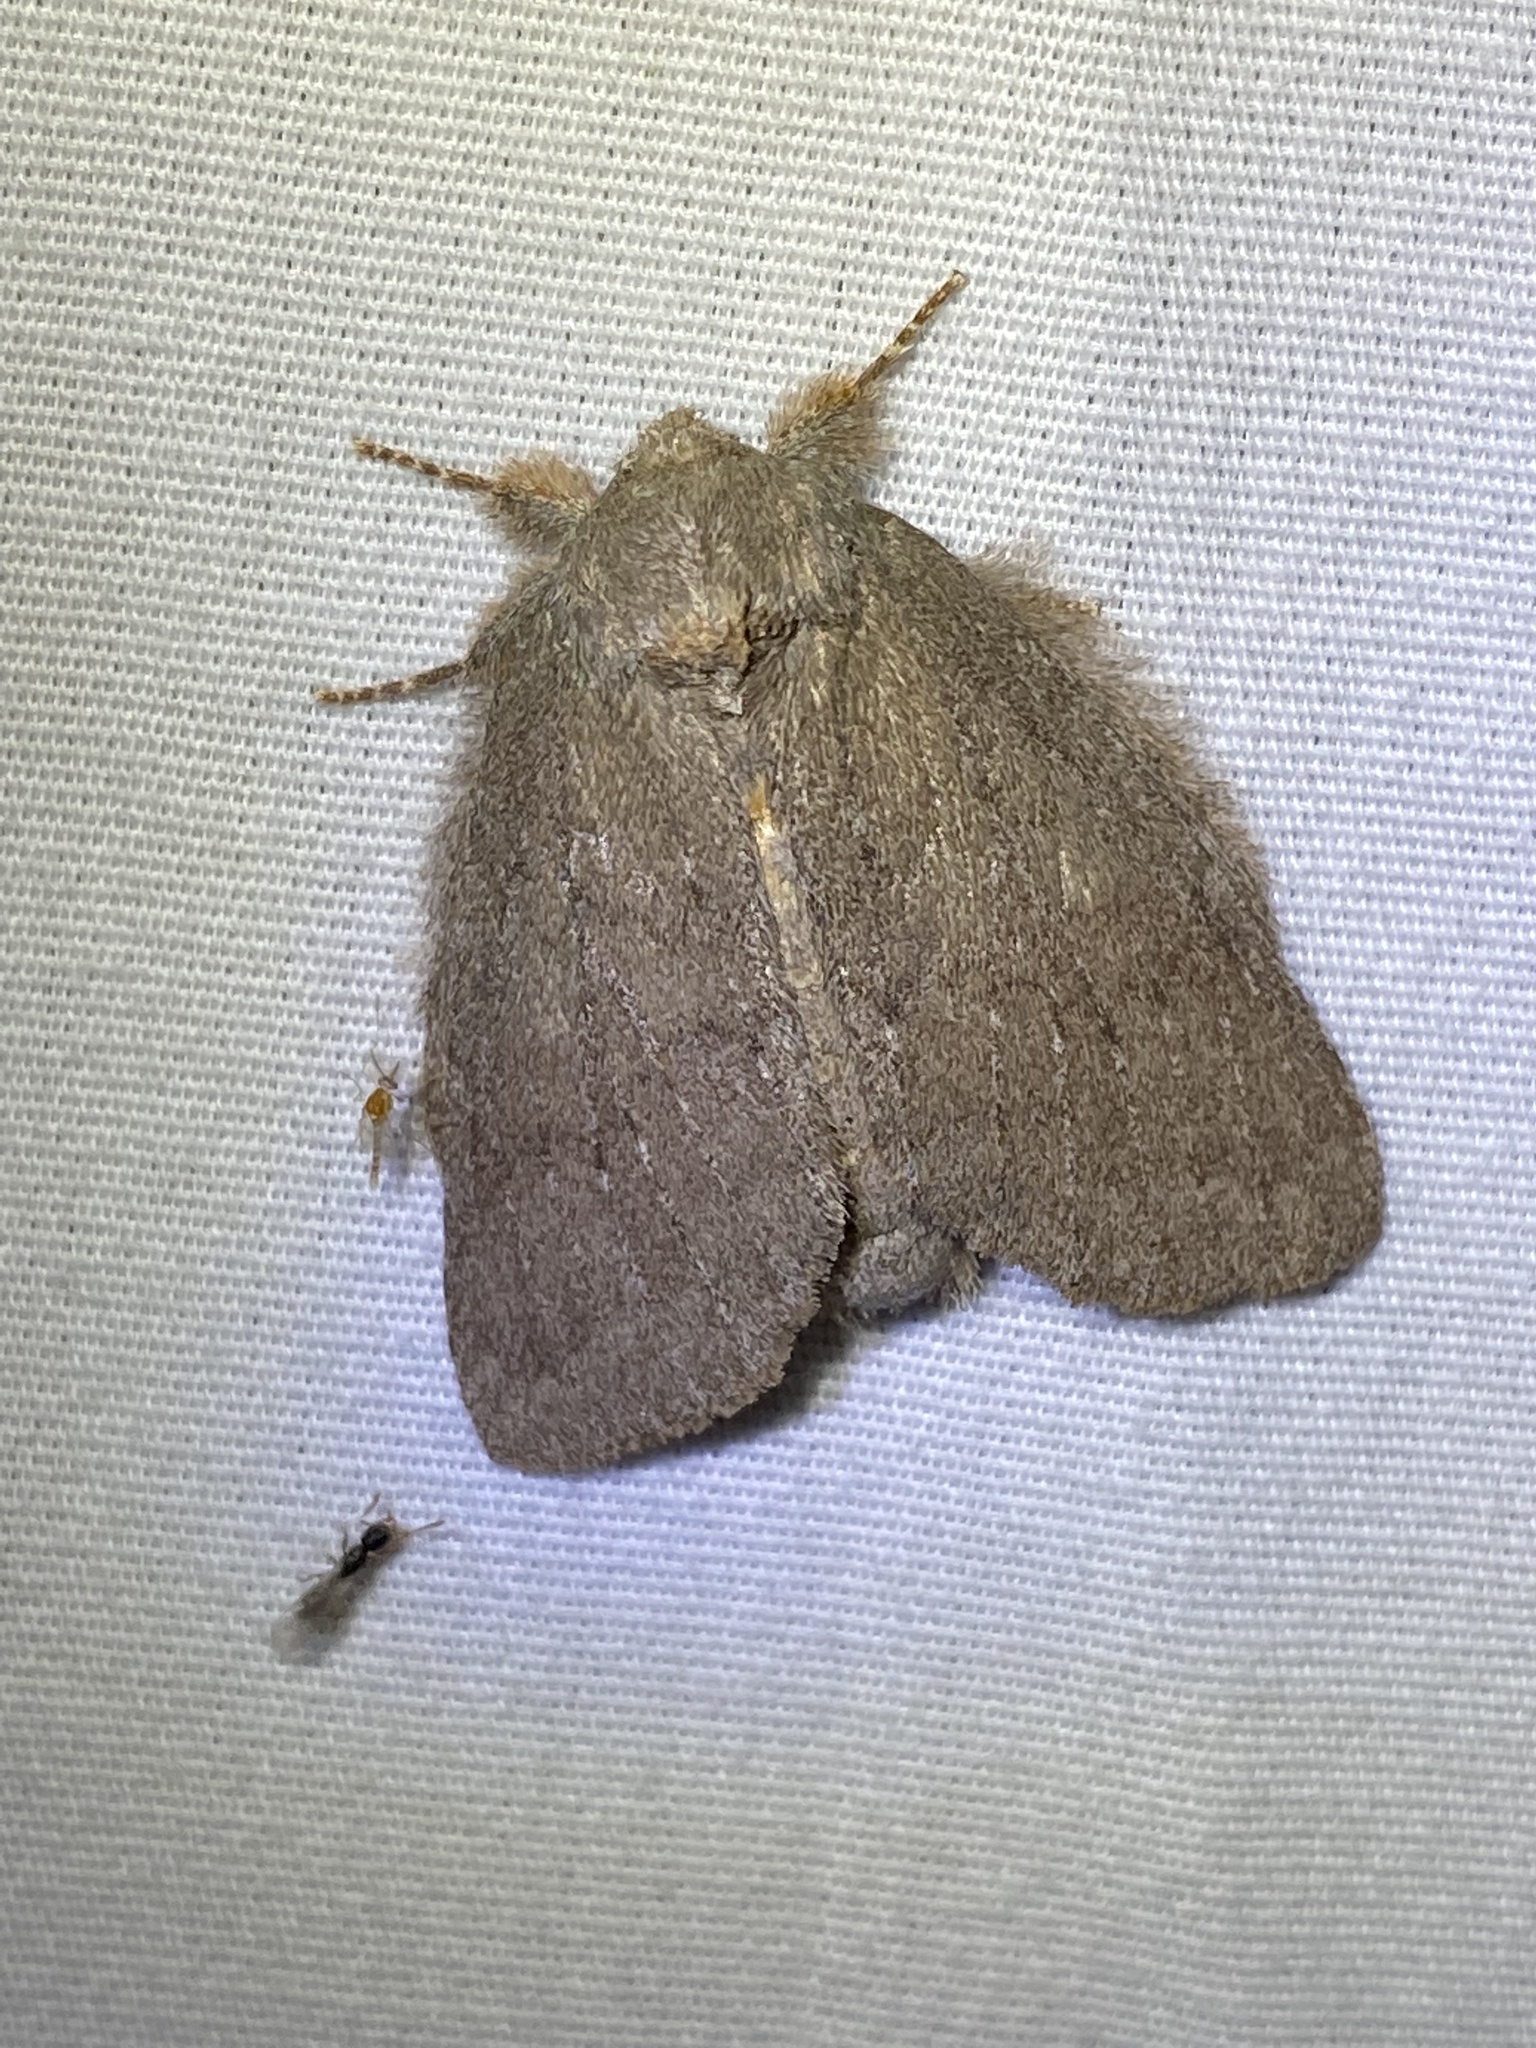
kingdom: Animalia
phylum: Arthropoda
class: Insecta
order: Lepidoptera
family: Notodontidae
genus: Misogada
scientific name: Misogada unicolor
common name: Drab prominent
